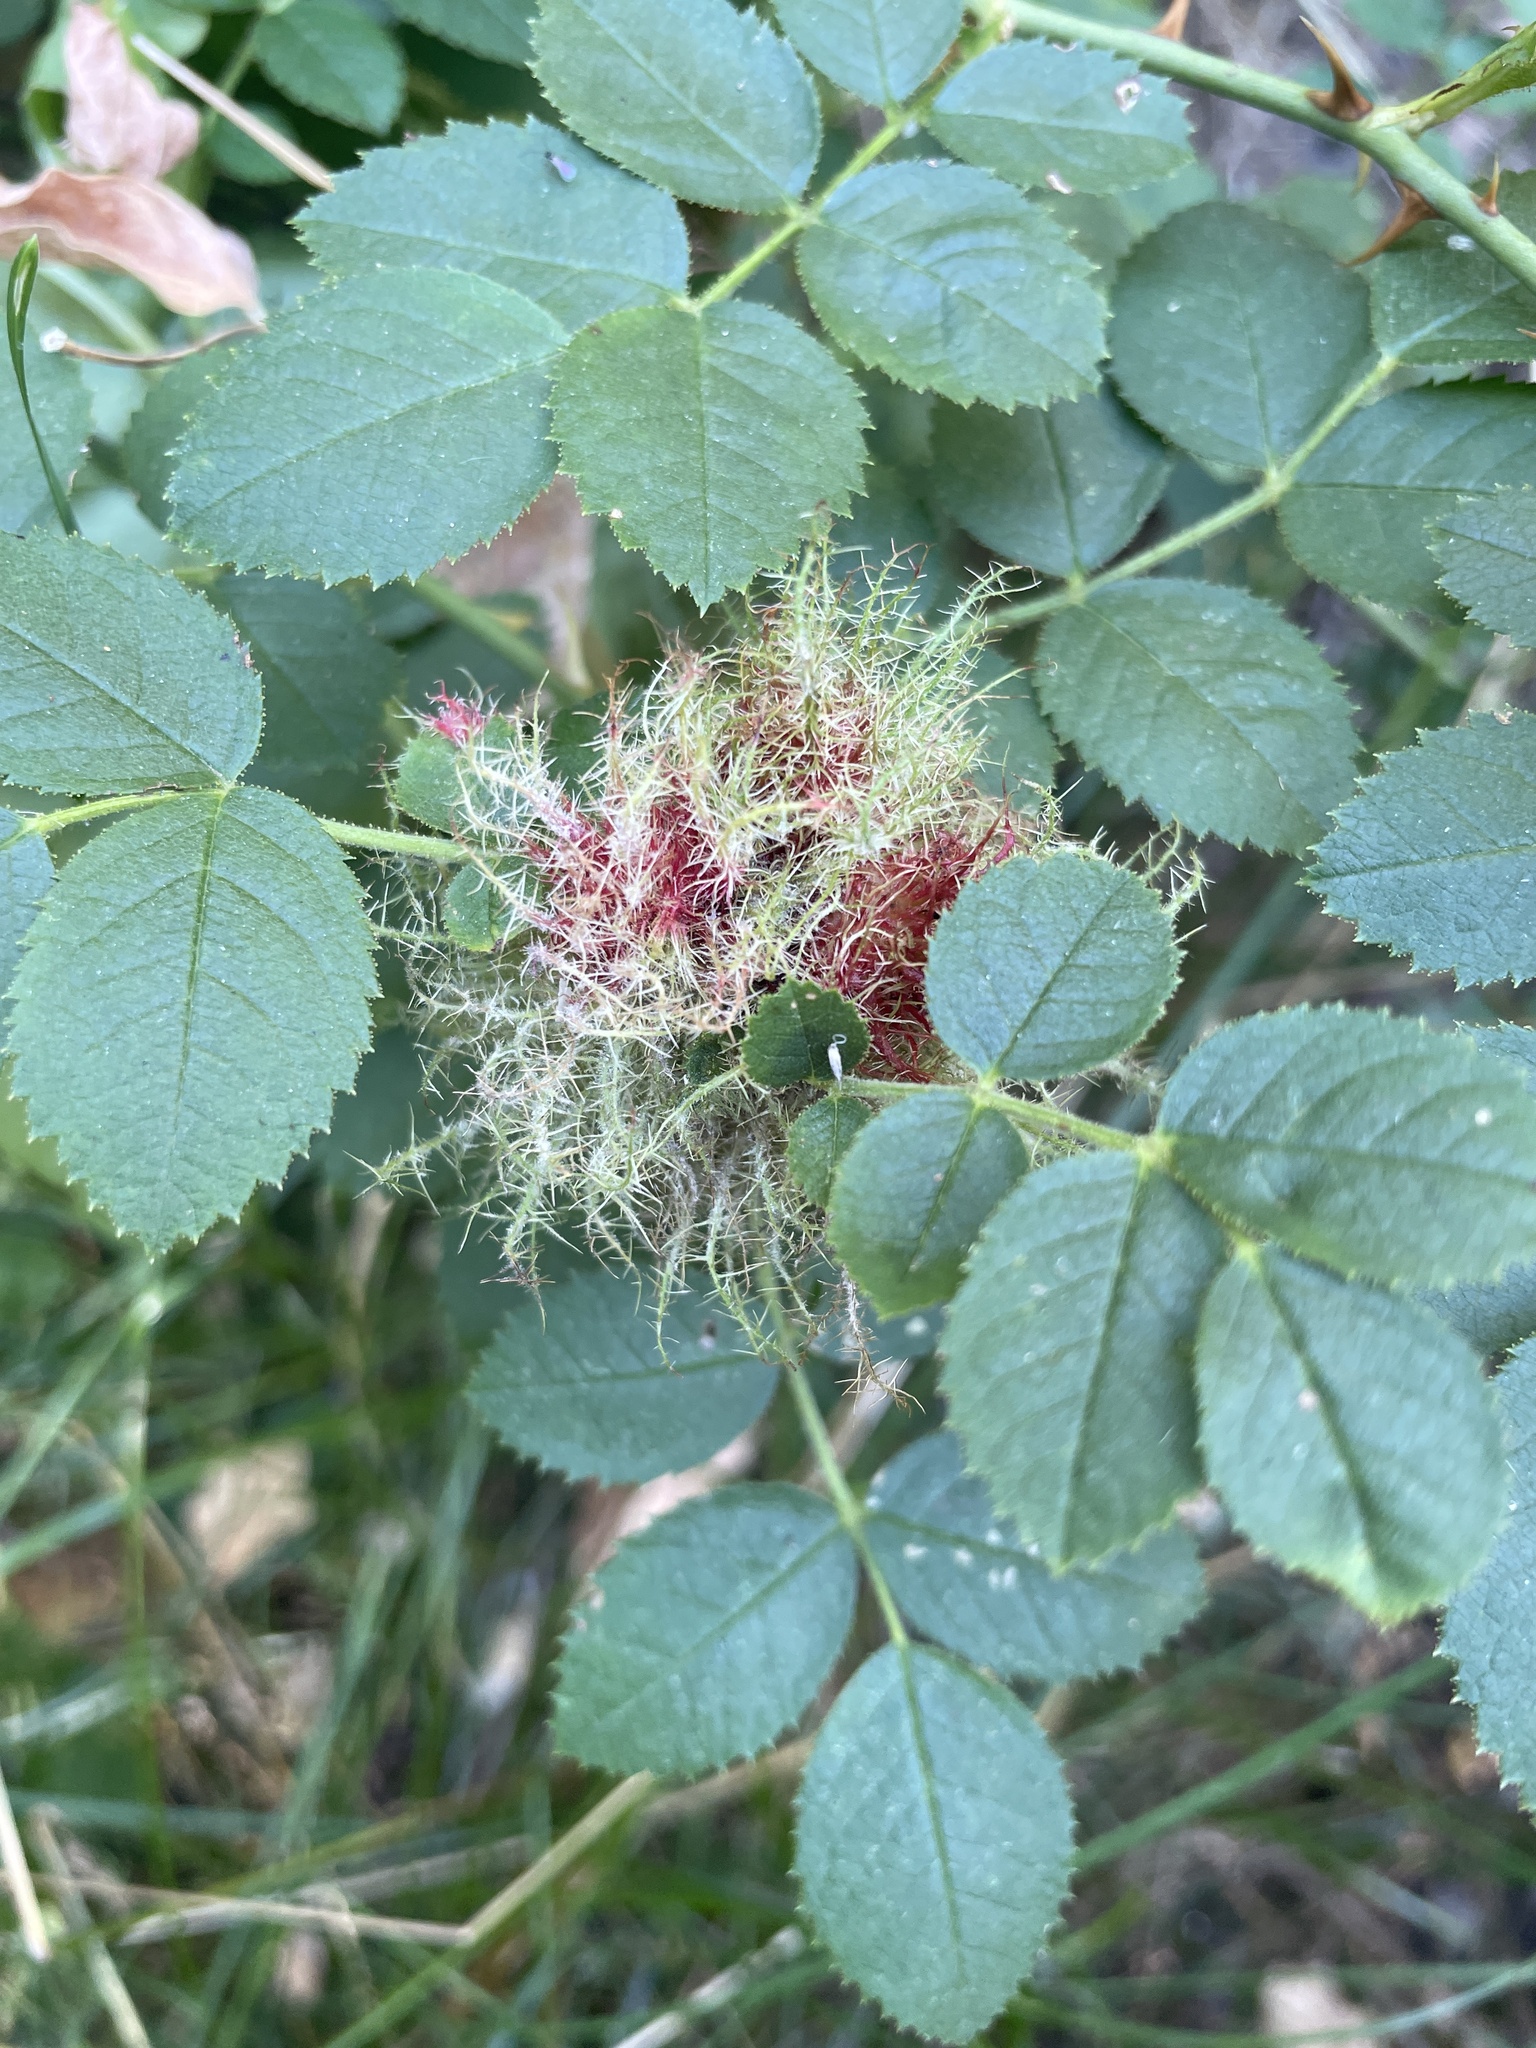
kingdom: Animalia
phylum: Arthropoda
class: Insecta
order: Hymenoptera
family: Cynipidae
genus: Diplolepis
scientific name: Diplolepis rosae
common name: Bedeguar gall
